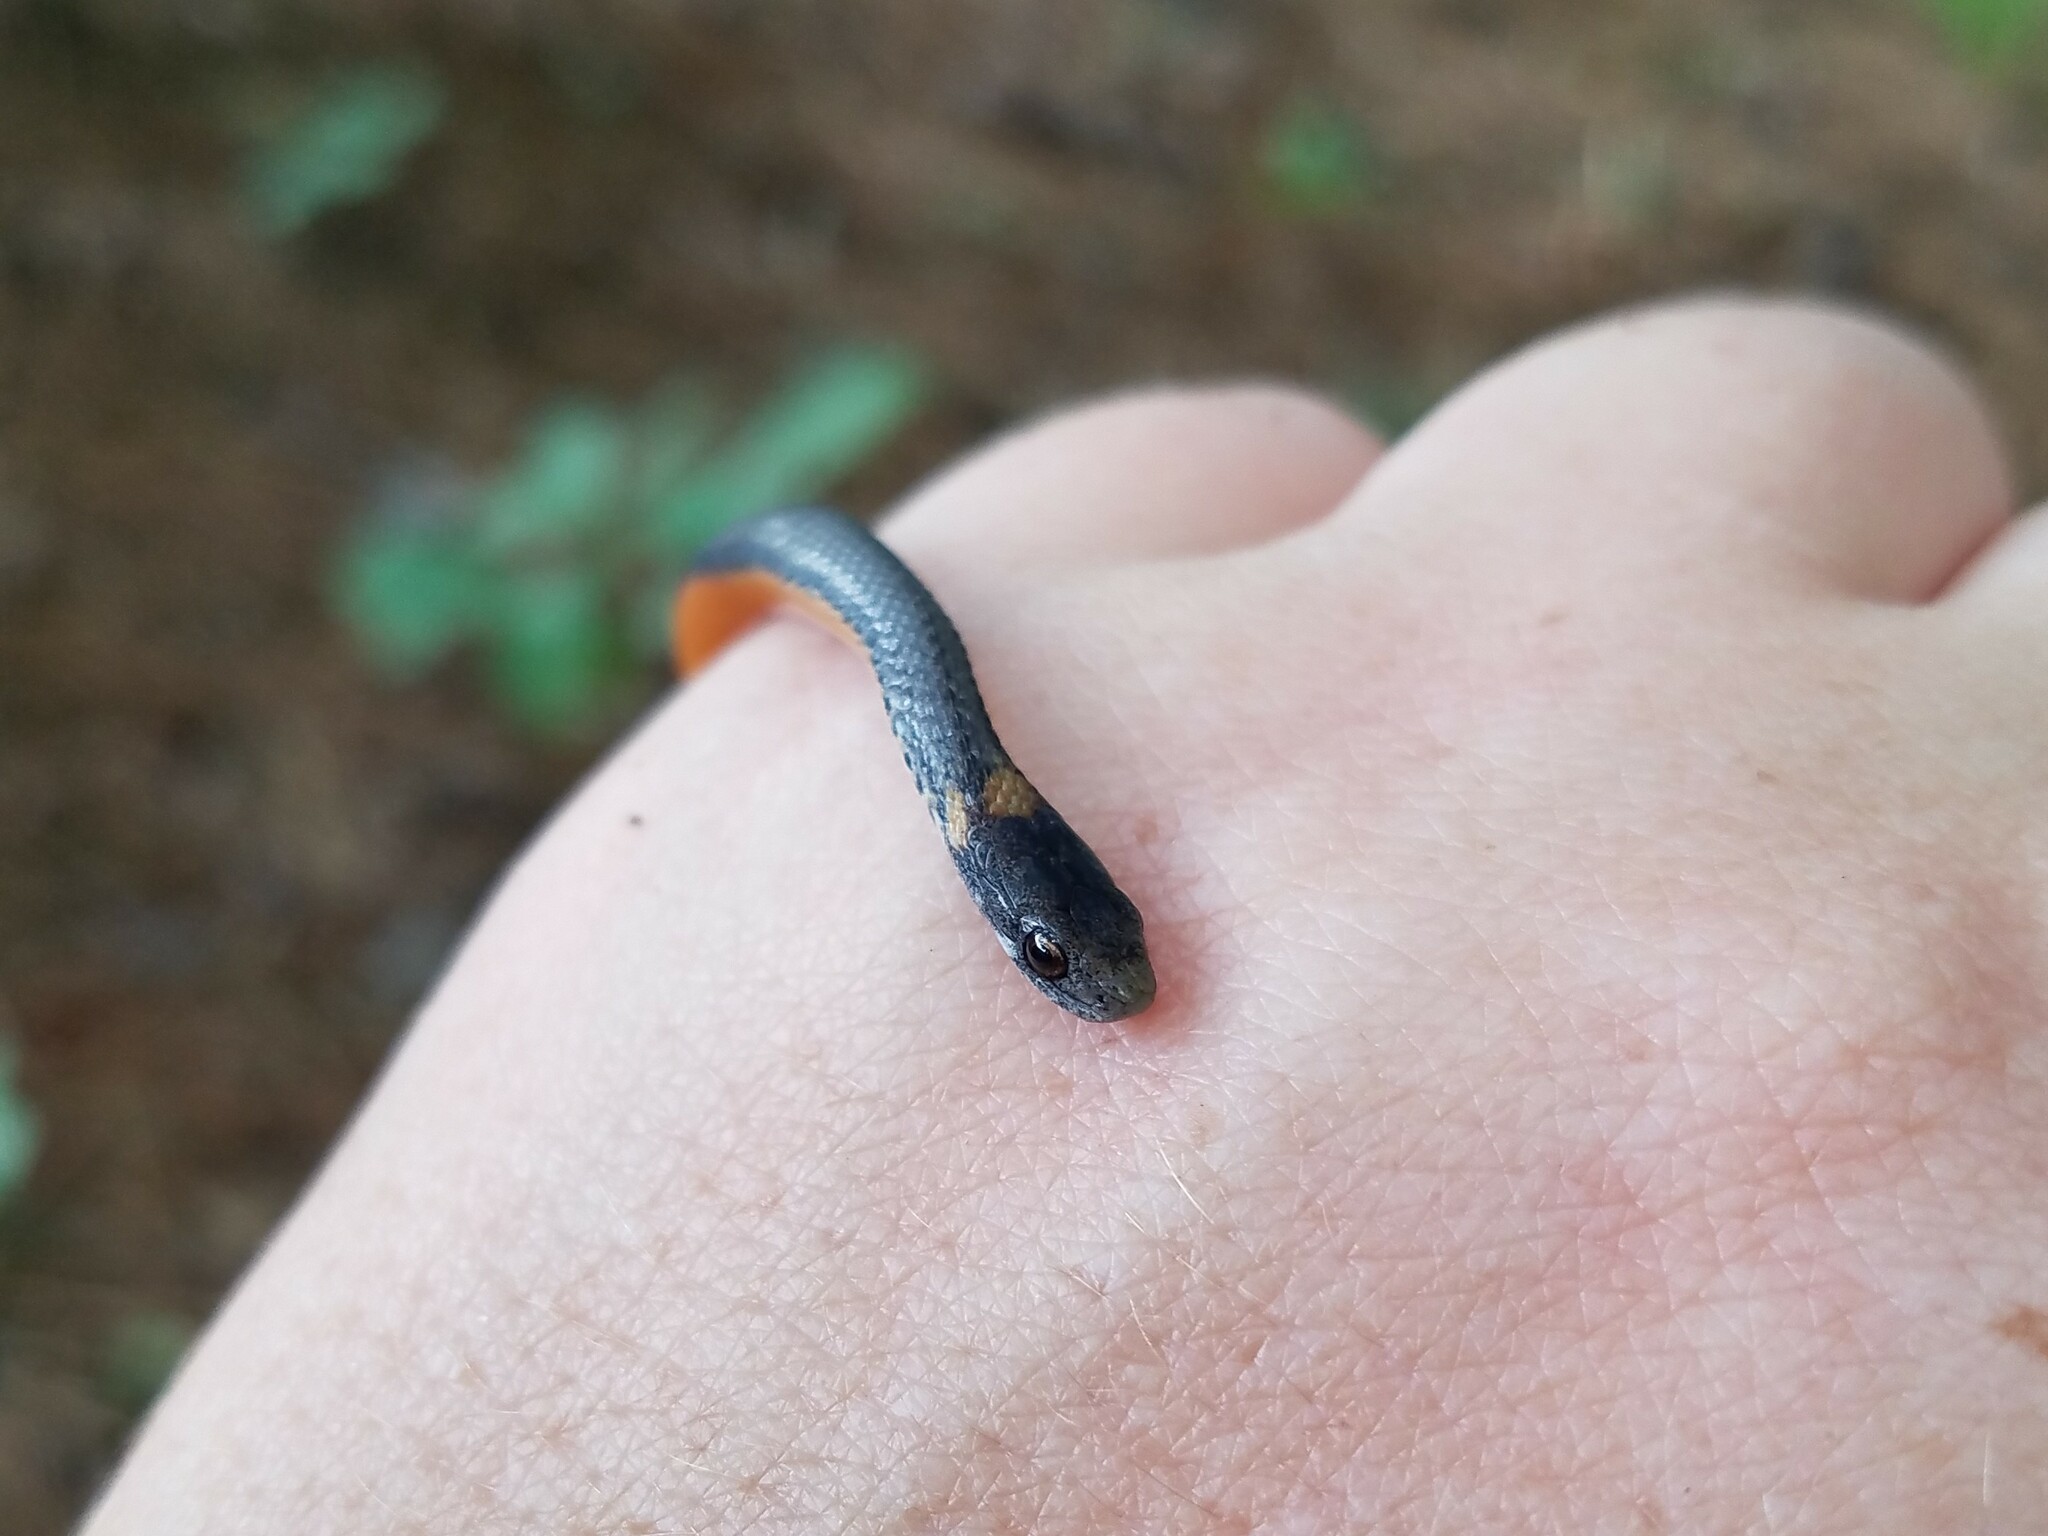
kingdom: Animalia
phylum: Chordata
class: Squamata
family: Colubridae
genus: Storeria
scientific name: Storeria occipitomaculata
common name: Redbelly snake
